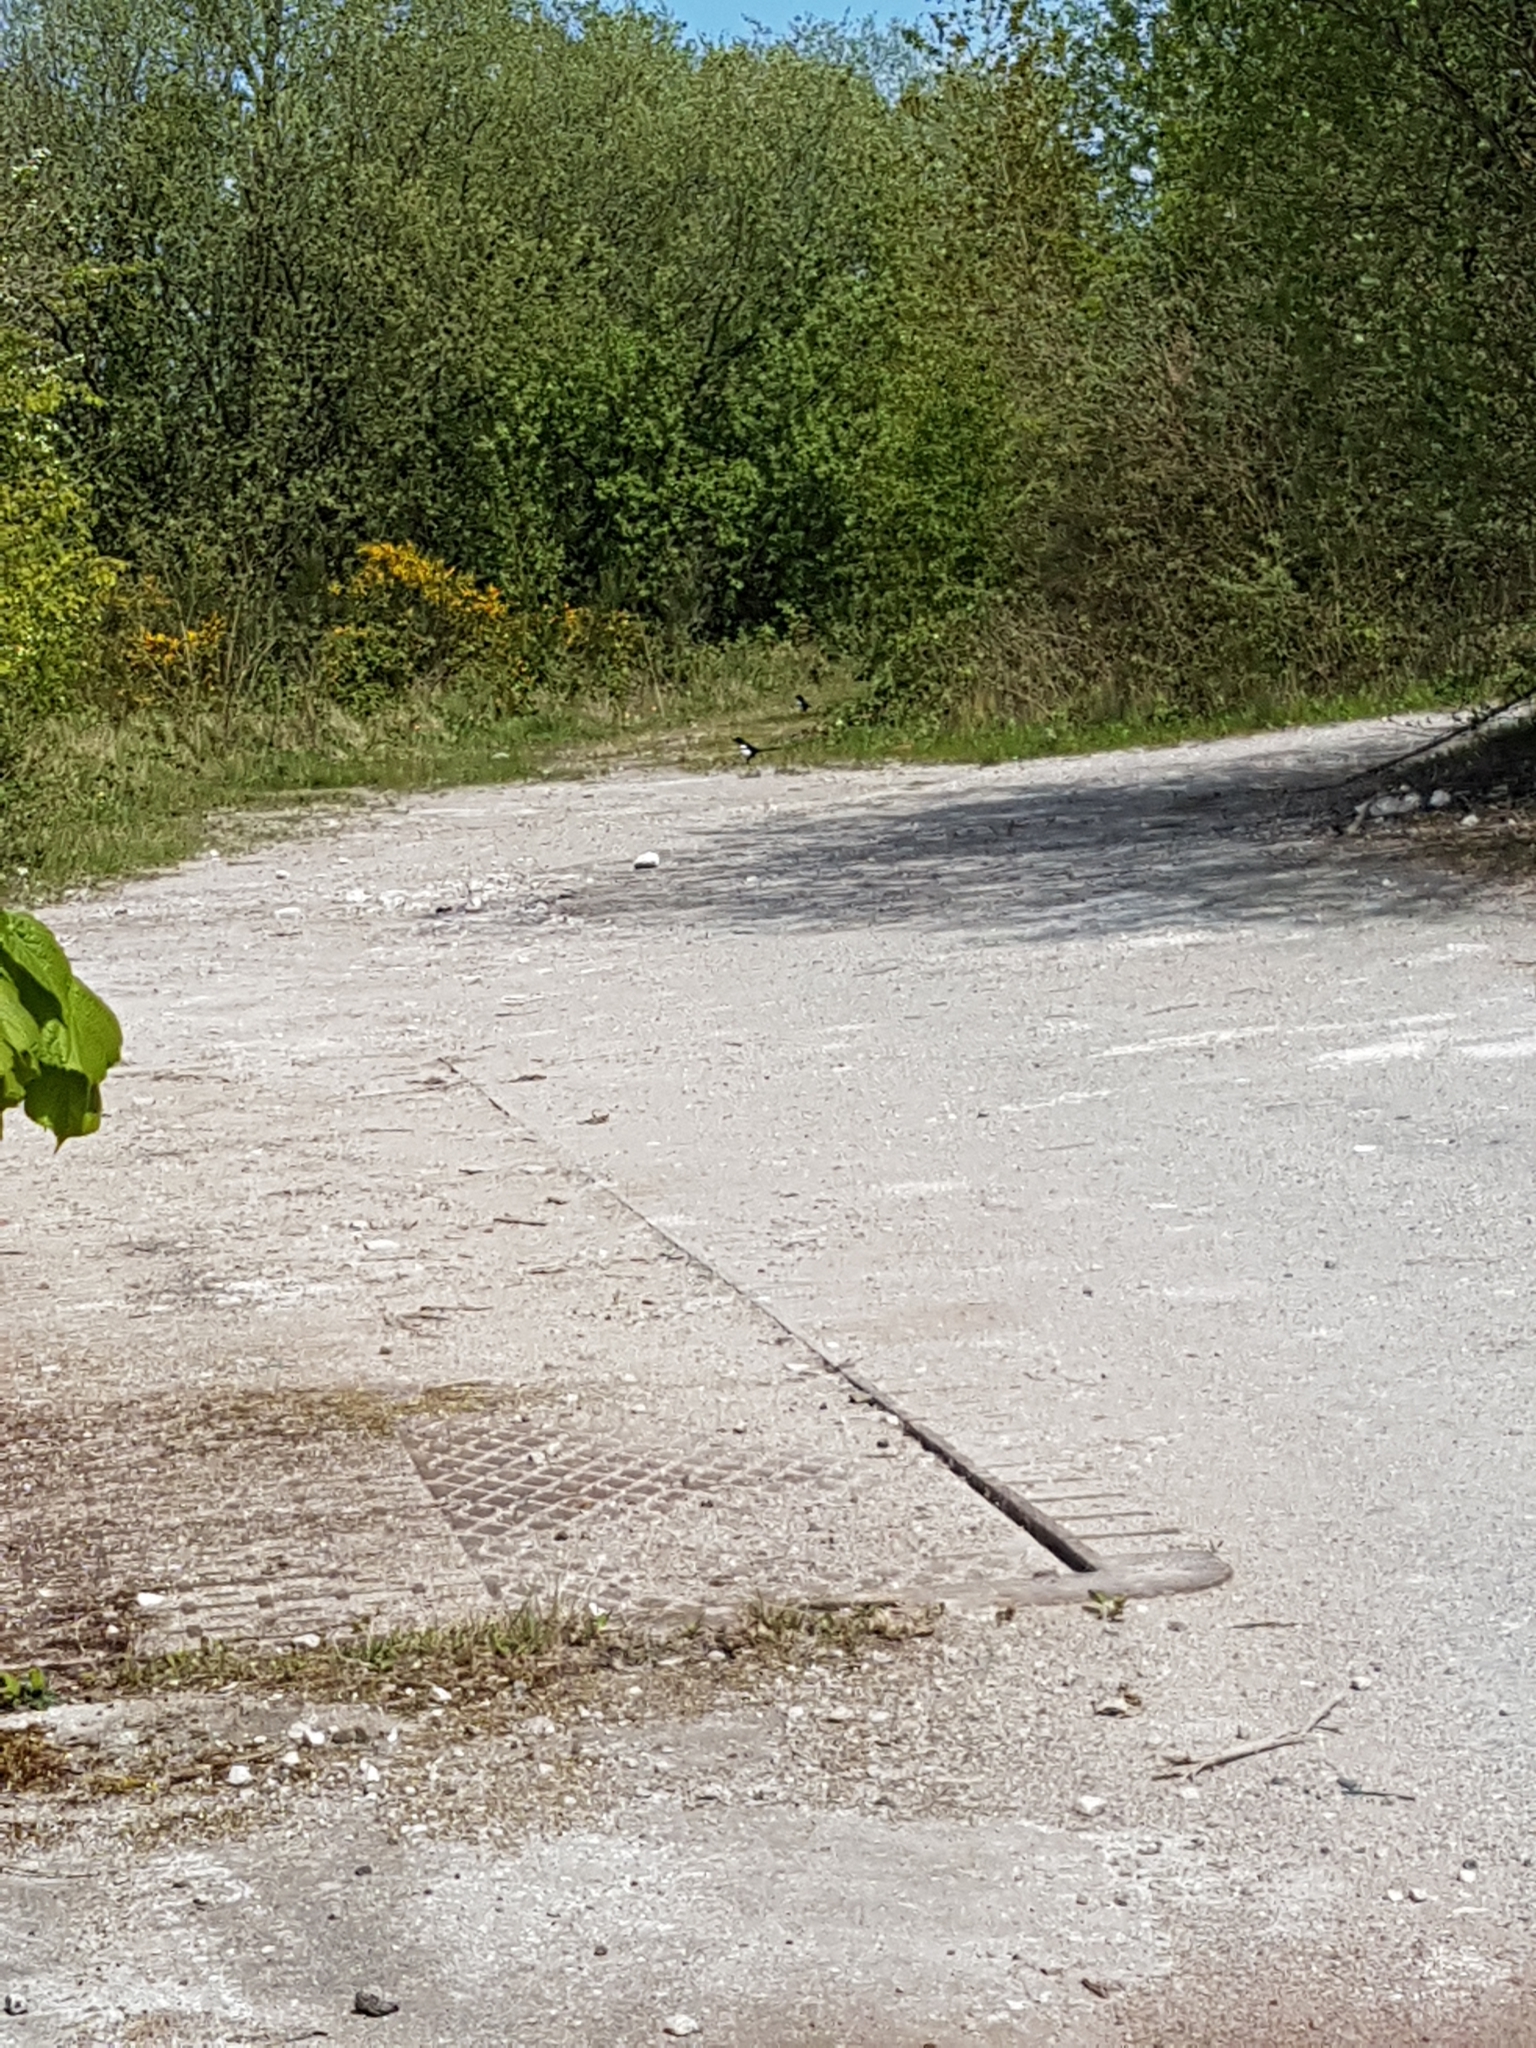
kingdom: Animalia
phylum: Chordata
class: Aves
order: Passeriformes
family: Corvidae
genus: Pica
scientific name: Pica pica
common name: Eurasian magpie
